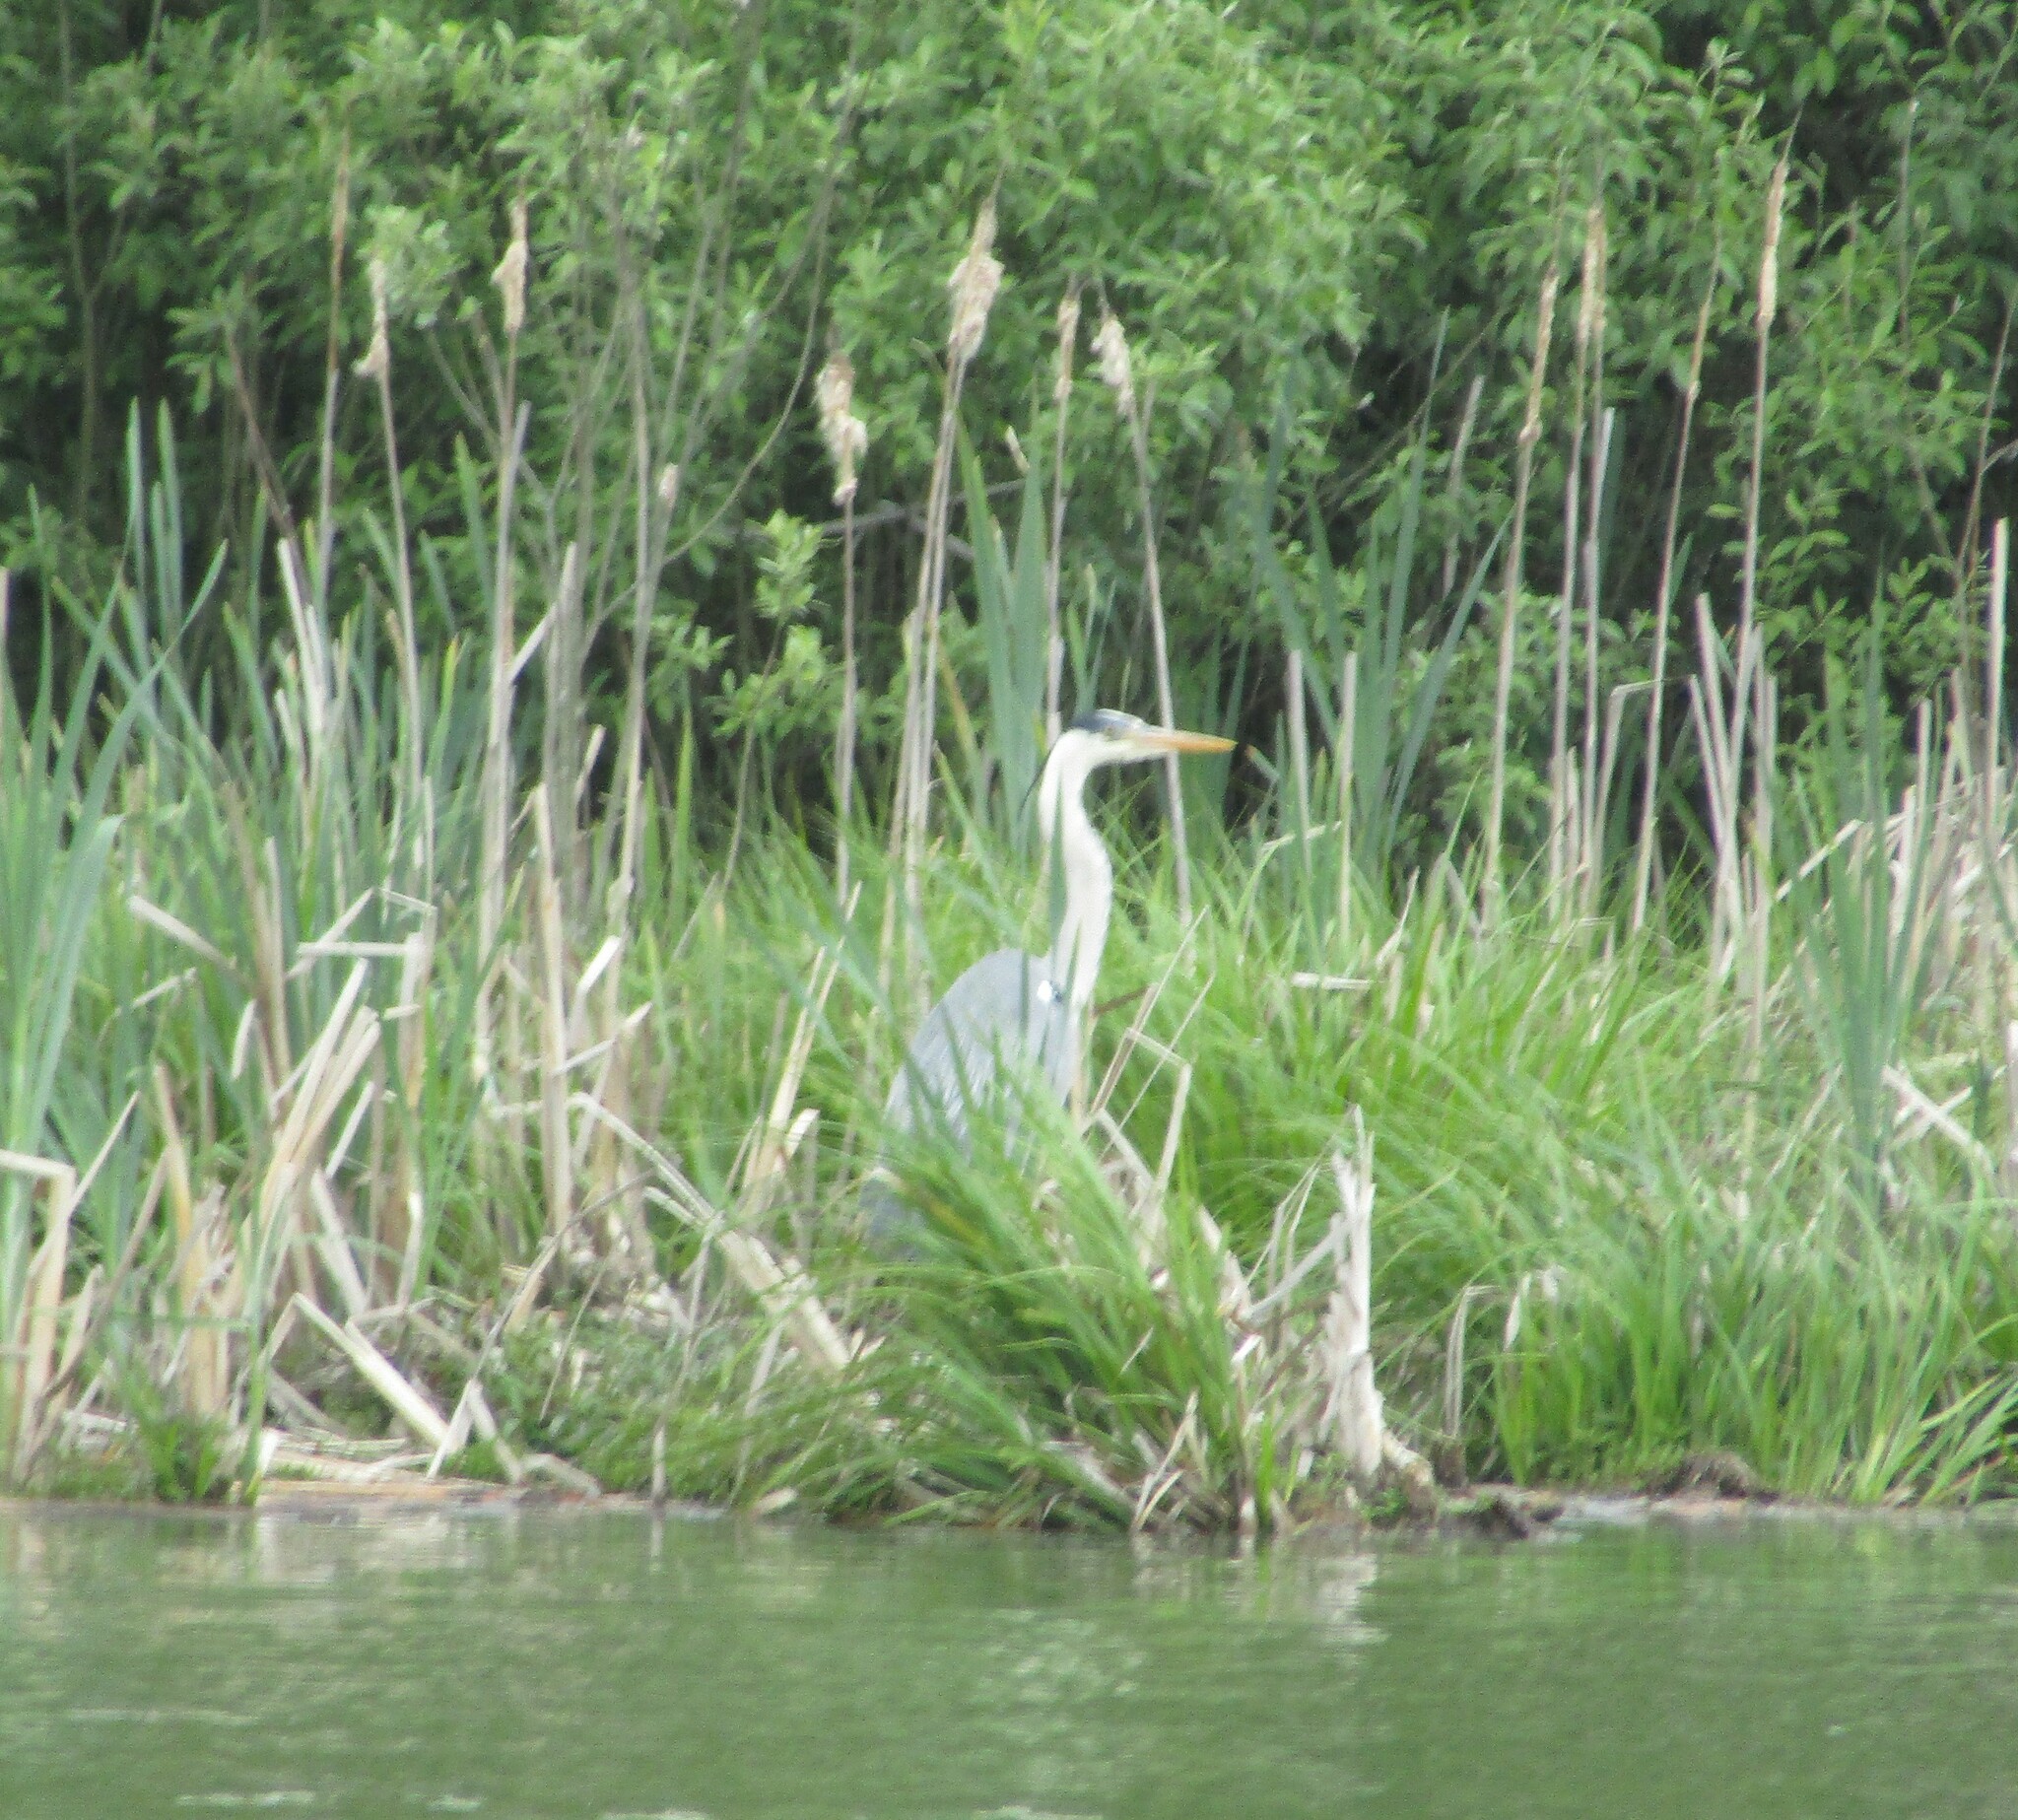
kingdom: Animalia
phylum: Chordata
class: Aves
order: Pelecaniformes
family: Ardeidae
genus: Ardea
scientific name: Ardea cinerea
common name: Grey heron
